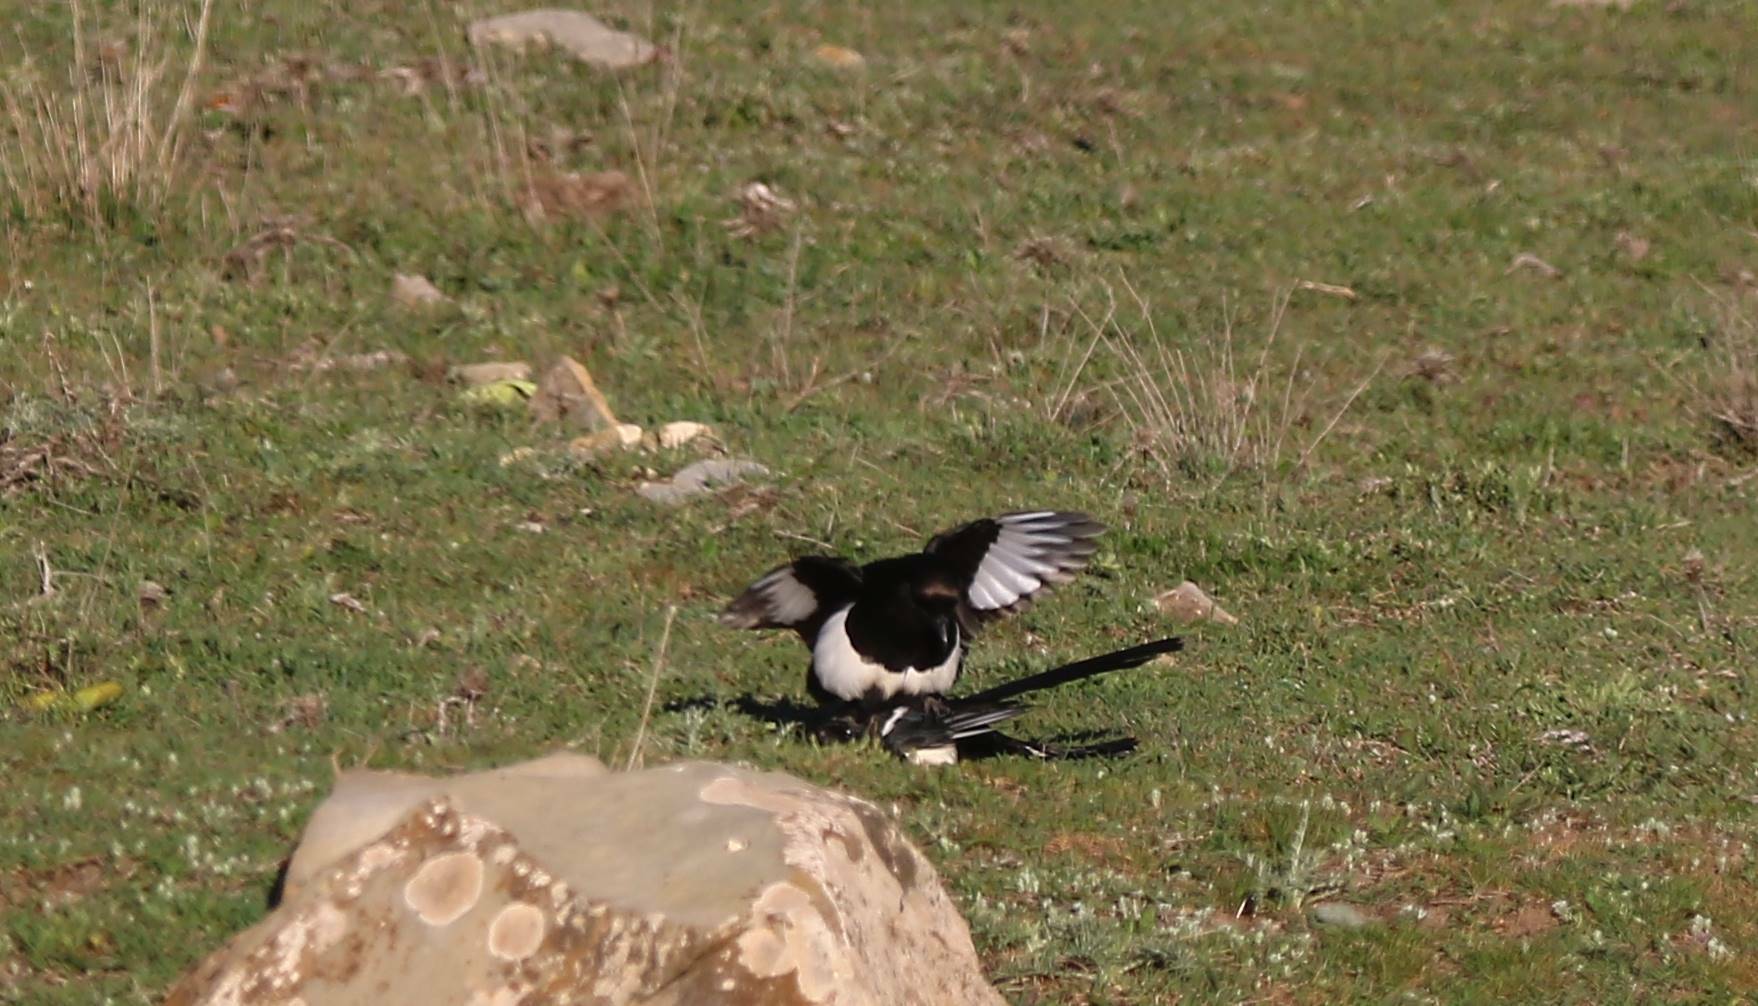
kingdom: Animalia
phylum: Chordata
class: Aves
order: Passeriformes
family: Corvidae
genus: Pica
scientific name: Pica mauritanica
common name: Maghreb magpie
